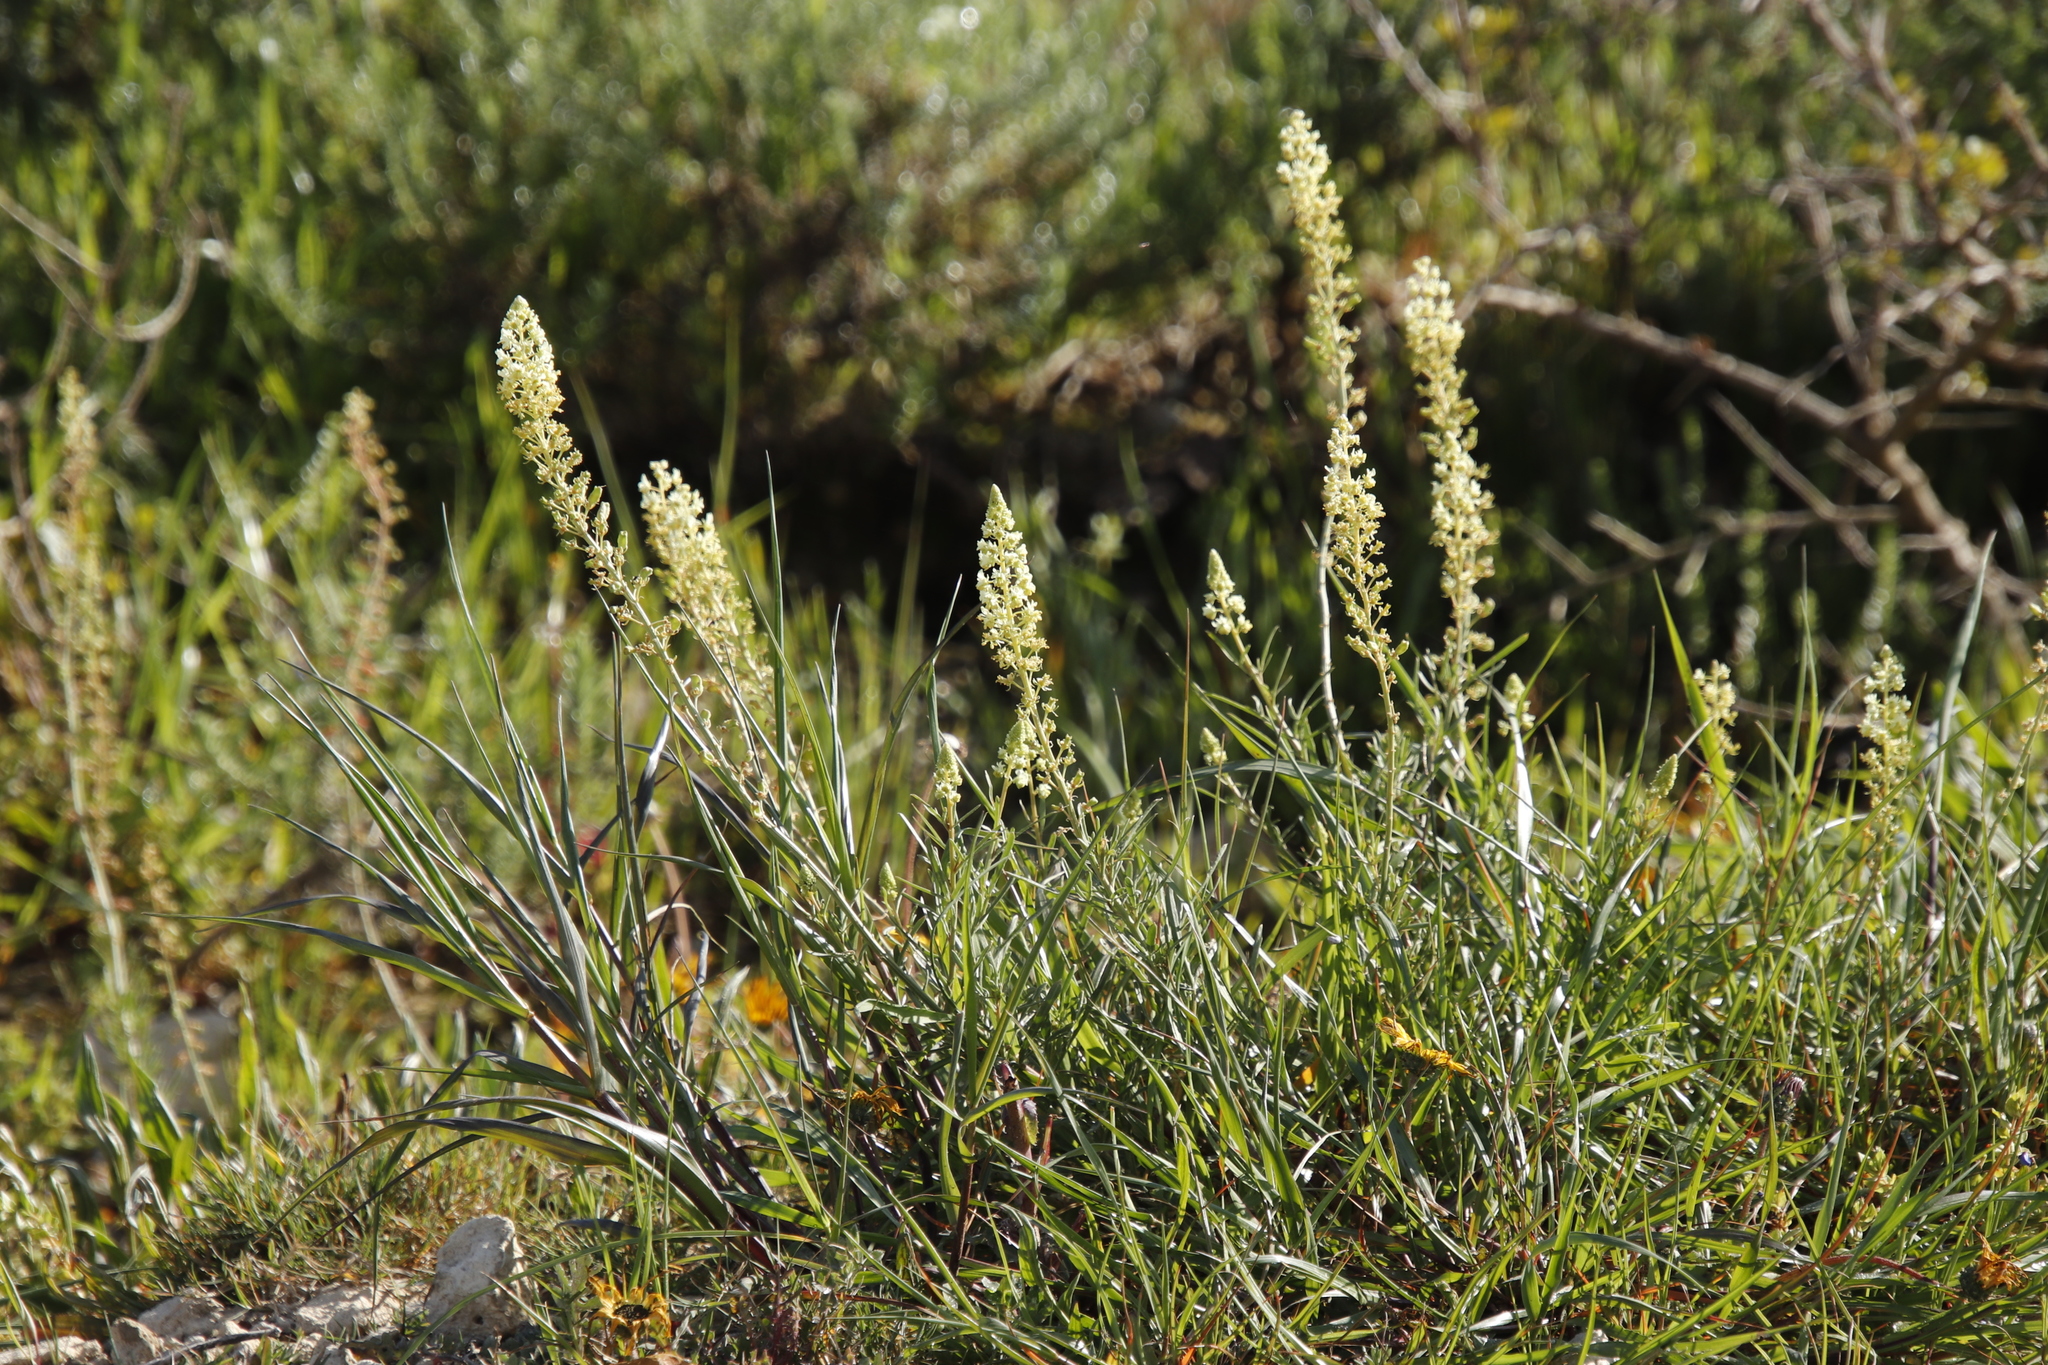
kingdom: Plantae
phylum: Tracheophyta
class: Magnoliopsida
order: Brassicales
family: Resedaceae
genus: Reseda
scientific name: Reseda lutea
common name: Wild mignonette
